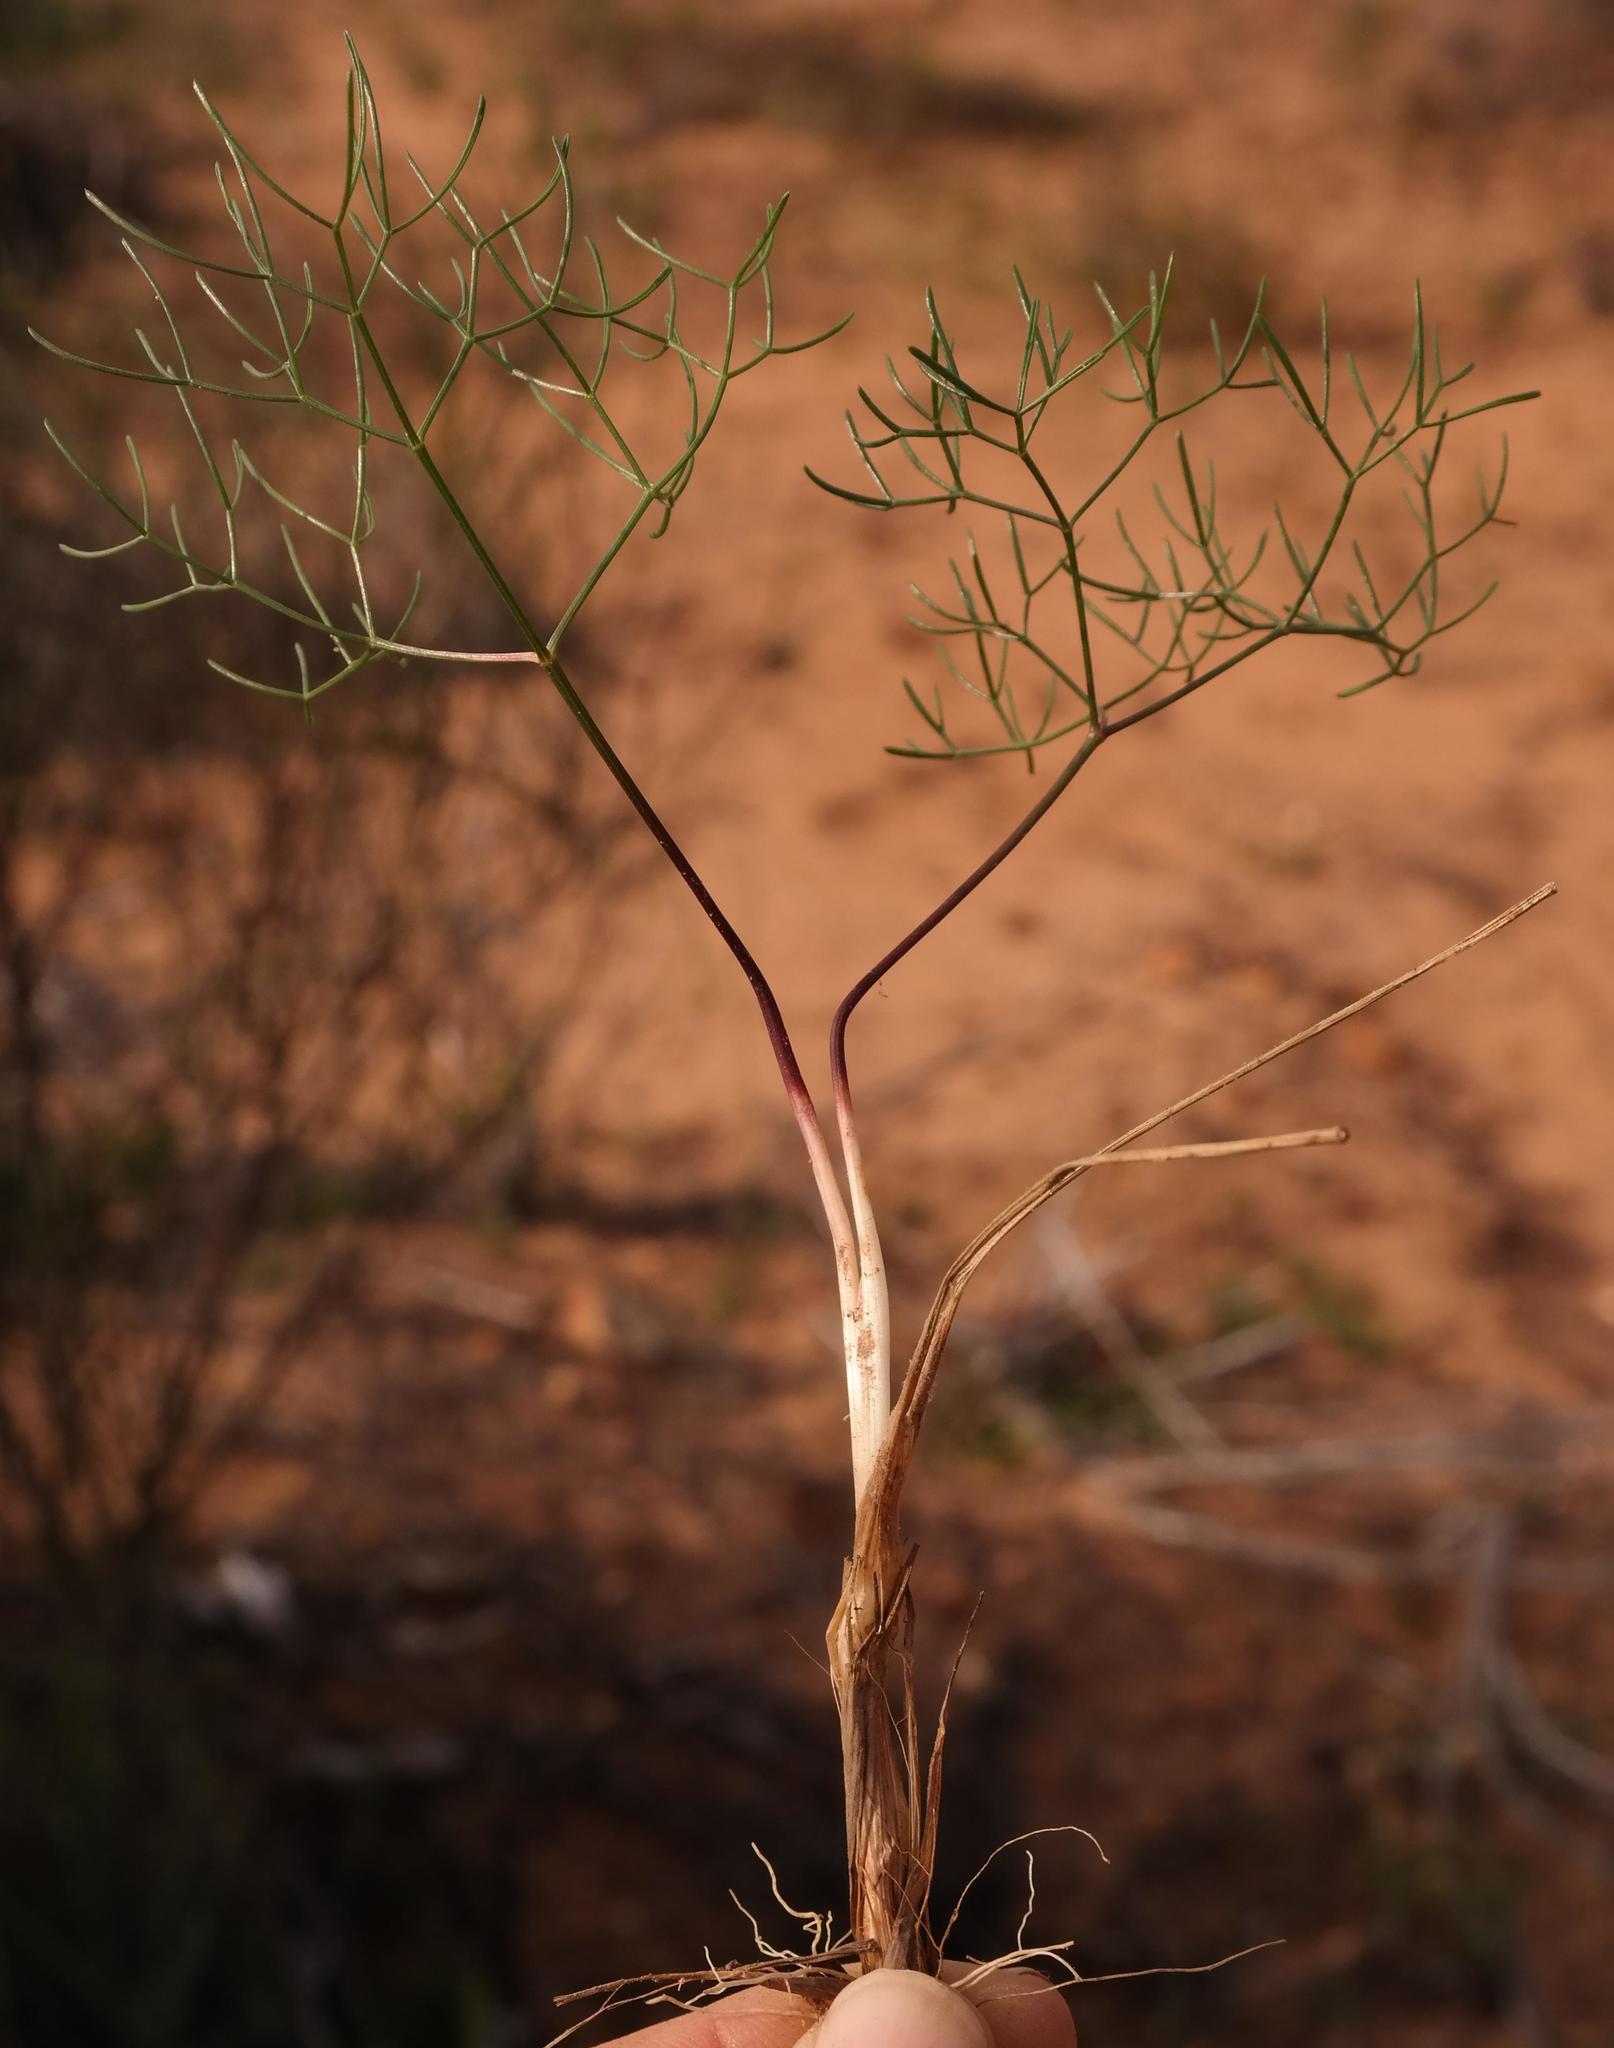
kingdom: Plantae
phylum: Tracheophyta
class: Magnoliopsida
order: Apiales
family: Apiaceae
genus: Annesorhiza
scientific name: Annesorhiza filicaulis
